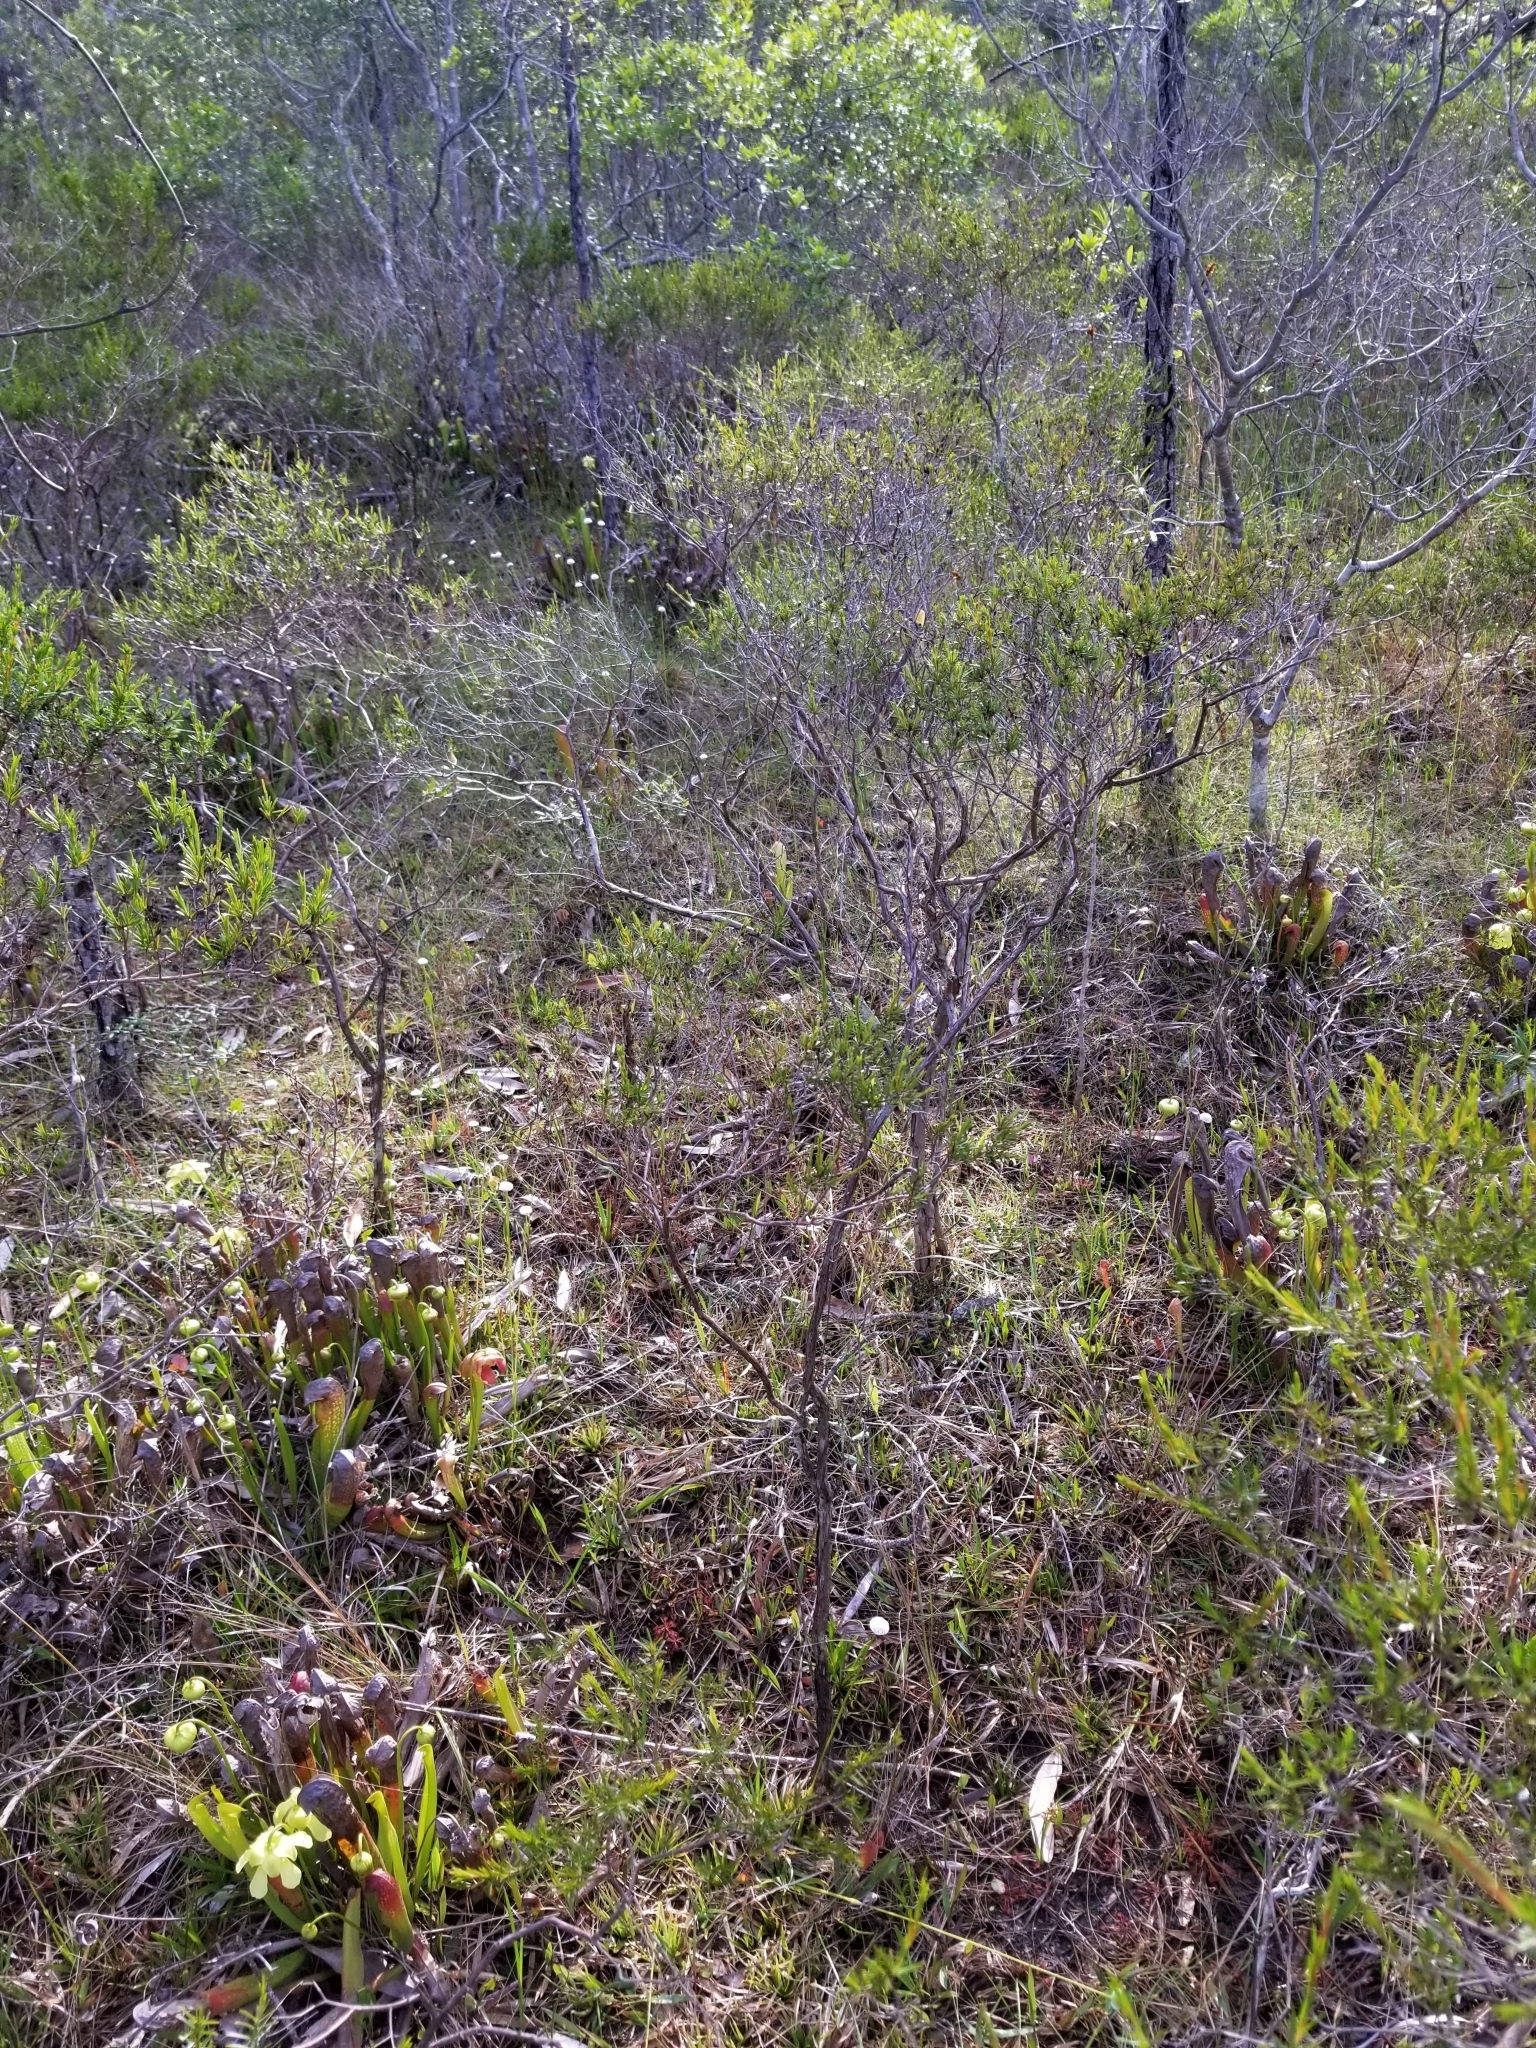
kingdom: Plantae
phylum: Tracheophyta
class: Magnoliopsida
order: Ericales
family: Sarraceniaceae
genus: Sarracenia
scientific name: Sarracenia minor
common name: Rainhat-trumpet
